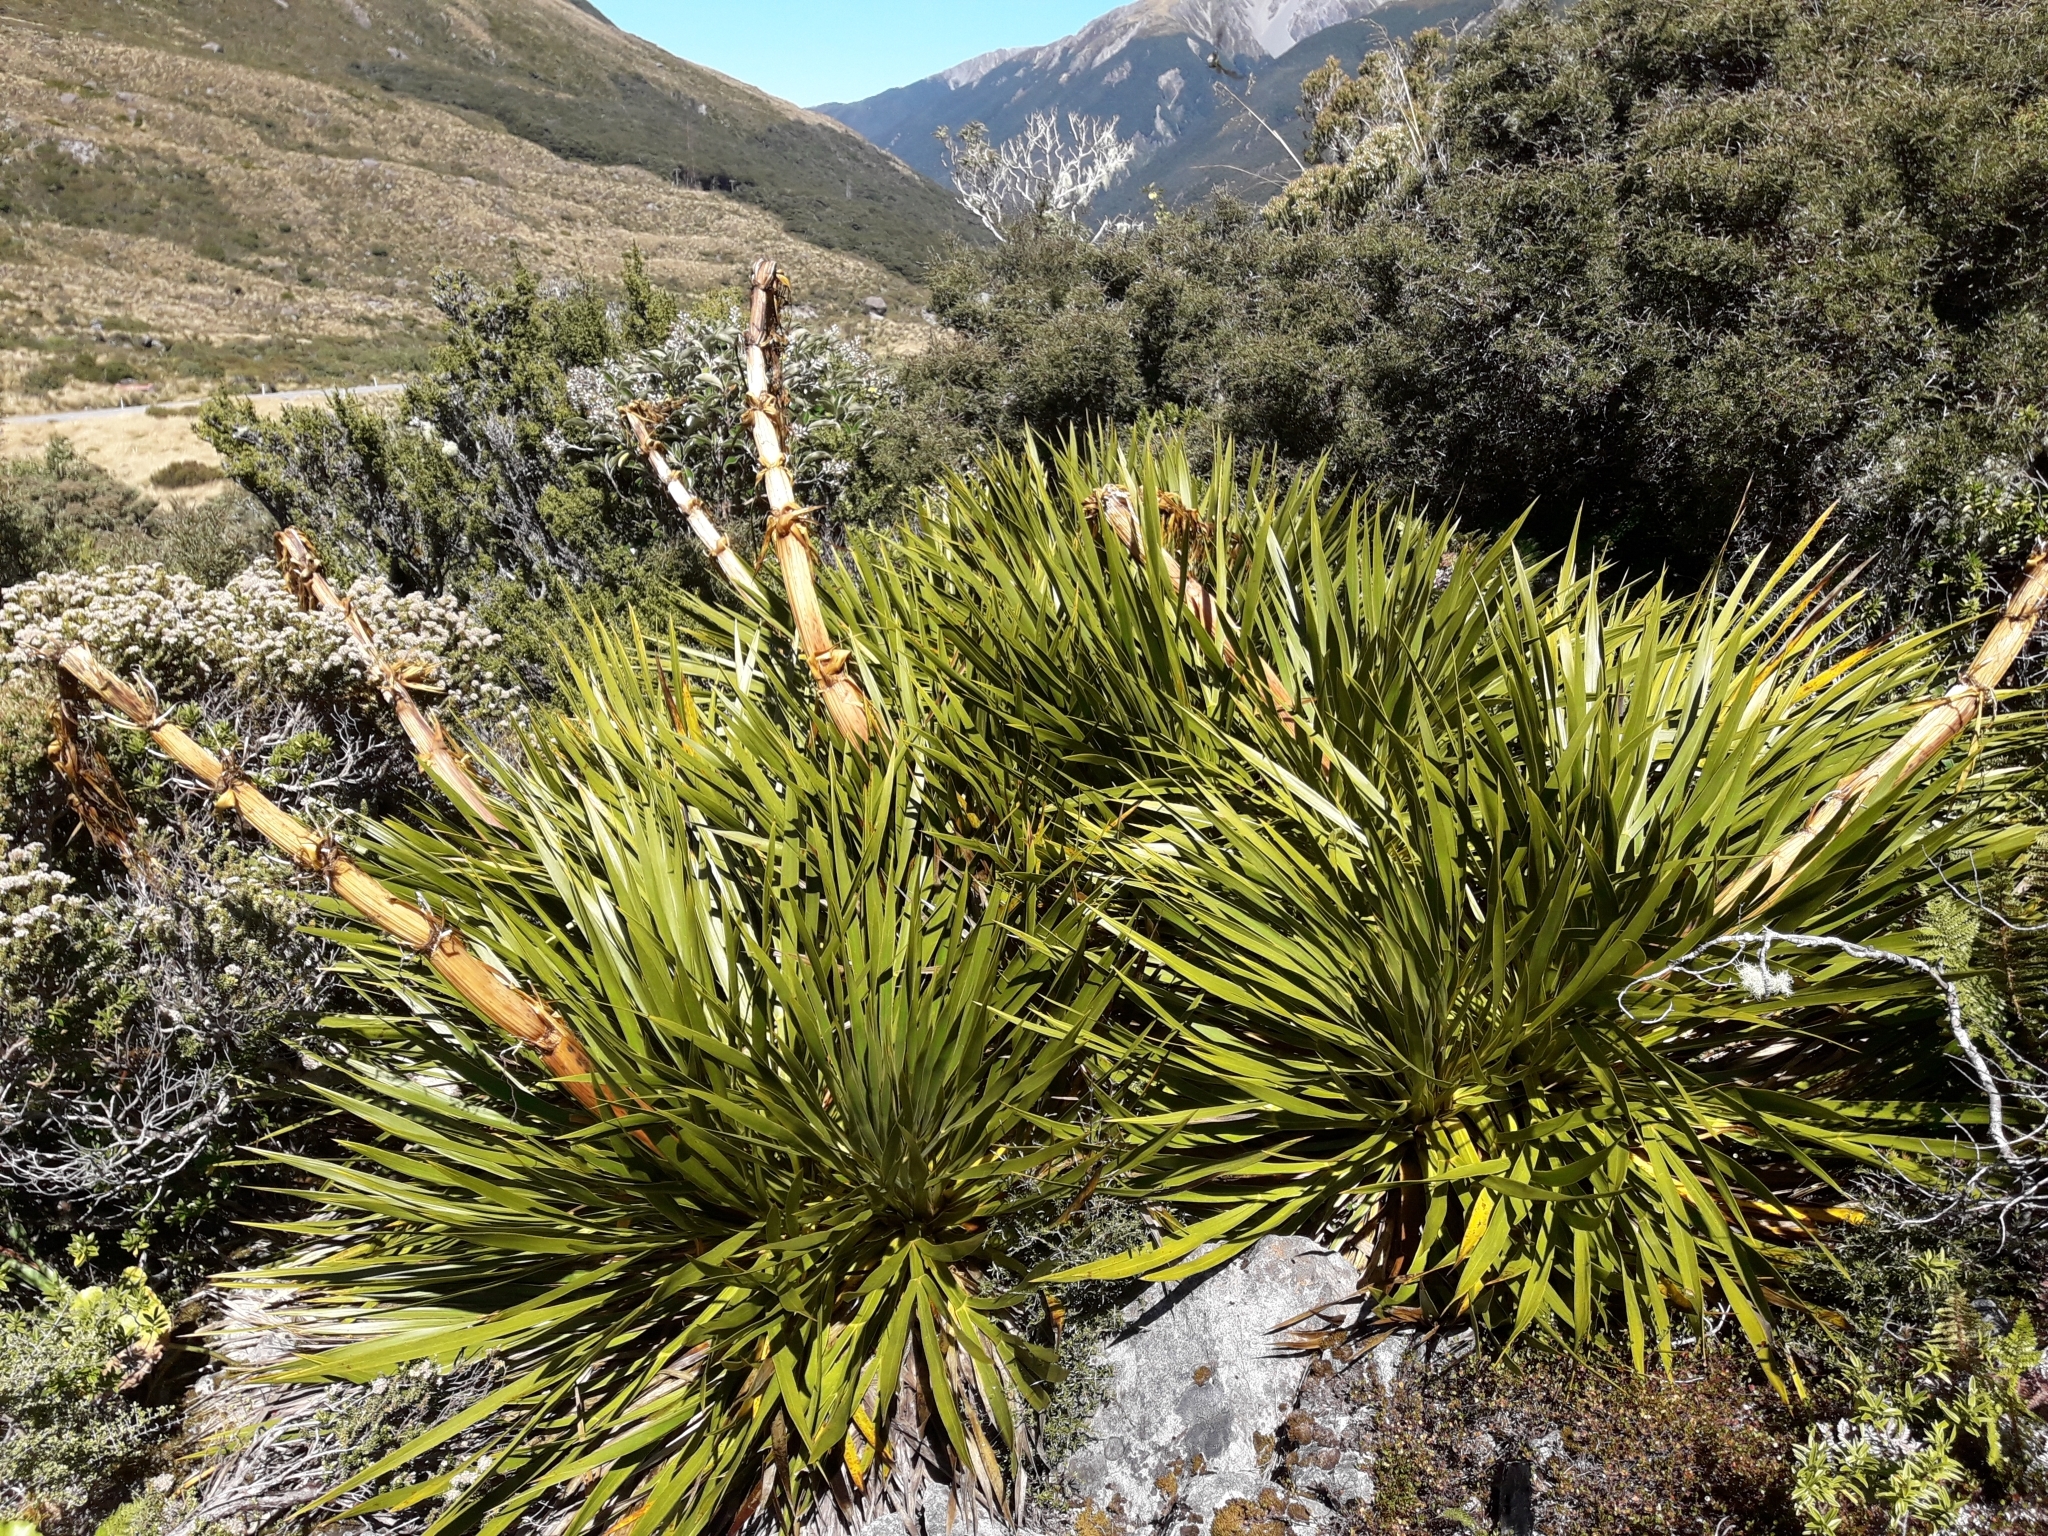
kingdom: Plantae
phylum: Tracheophyta
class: Magnoliopsida
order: Apiales
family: Apiaceae
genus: Aciphylla
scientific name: Aciphylla horrida
